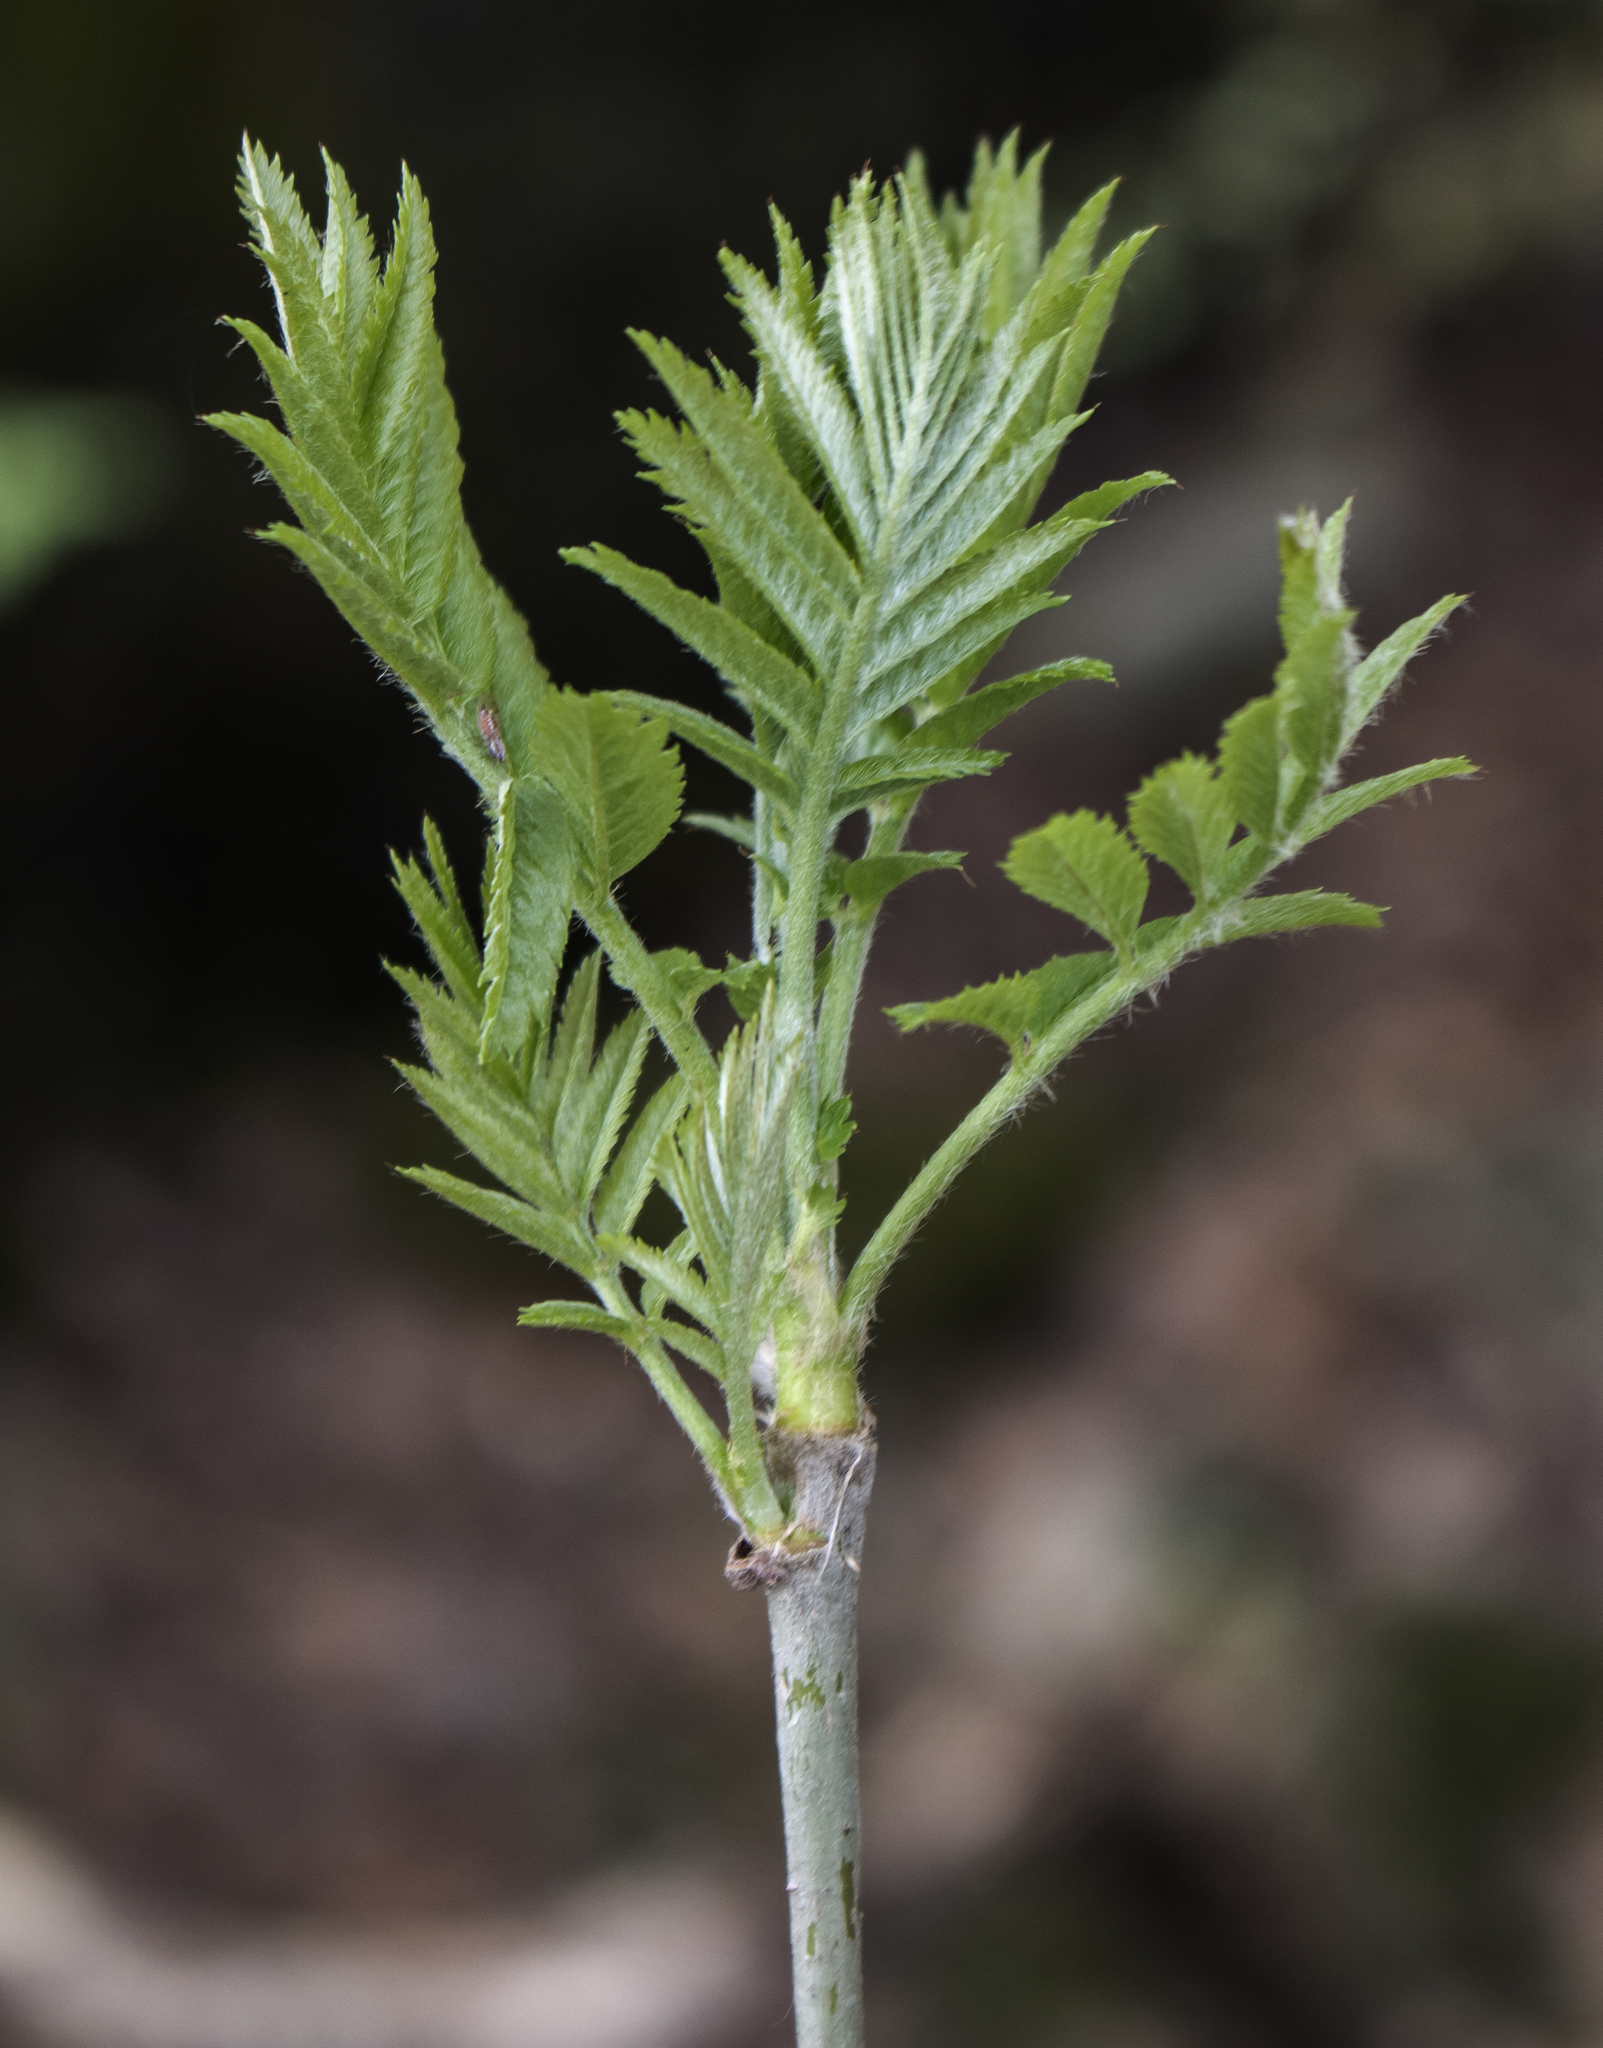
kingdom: Plantae
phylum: Tracheophyta
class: Magnoliopsida
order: Rosales
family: Rosaceae
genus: Sorbus
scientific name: Sorbus aucuparia
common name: Rowan
